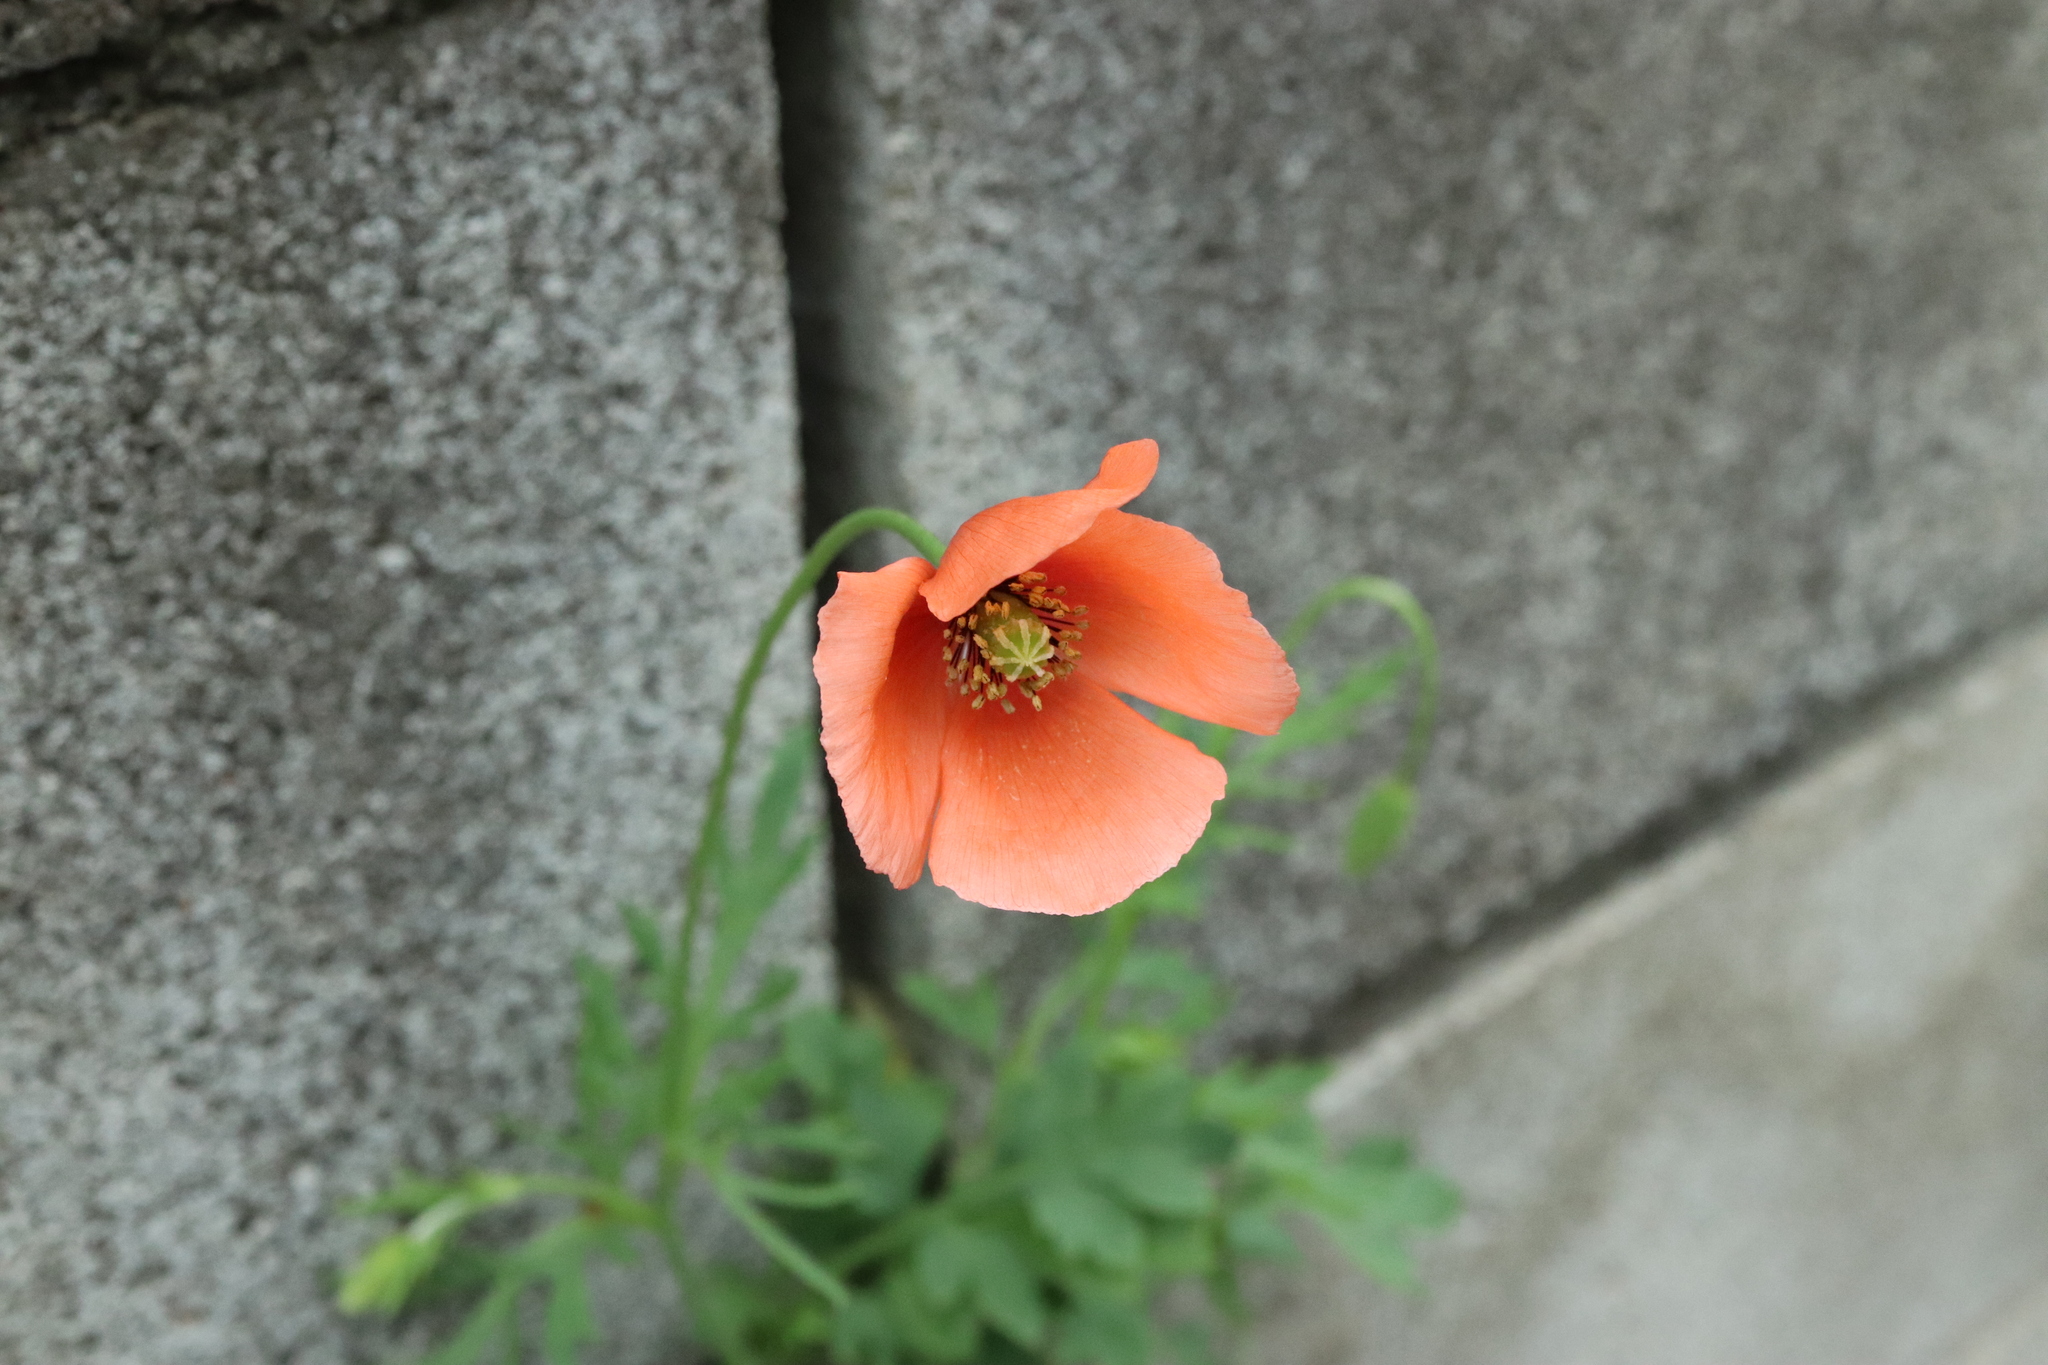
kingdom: Plantae
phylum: Tracheophyta
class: Magnoliopsida
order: Ranunculales
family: Papaveraceae
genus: Papaver
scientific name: Papaver dubium
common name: Long-headed poppy
